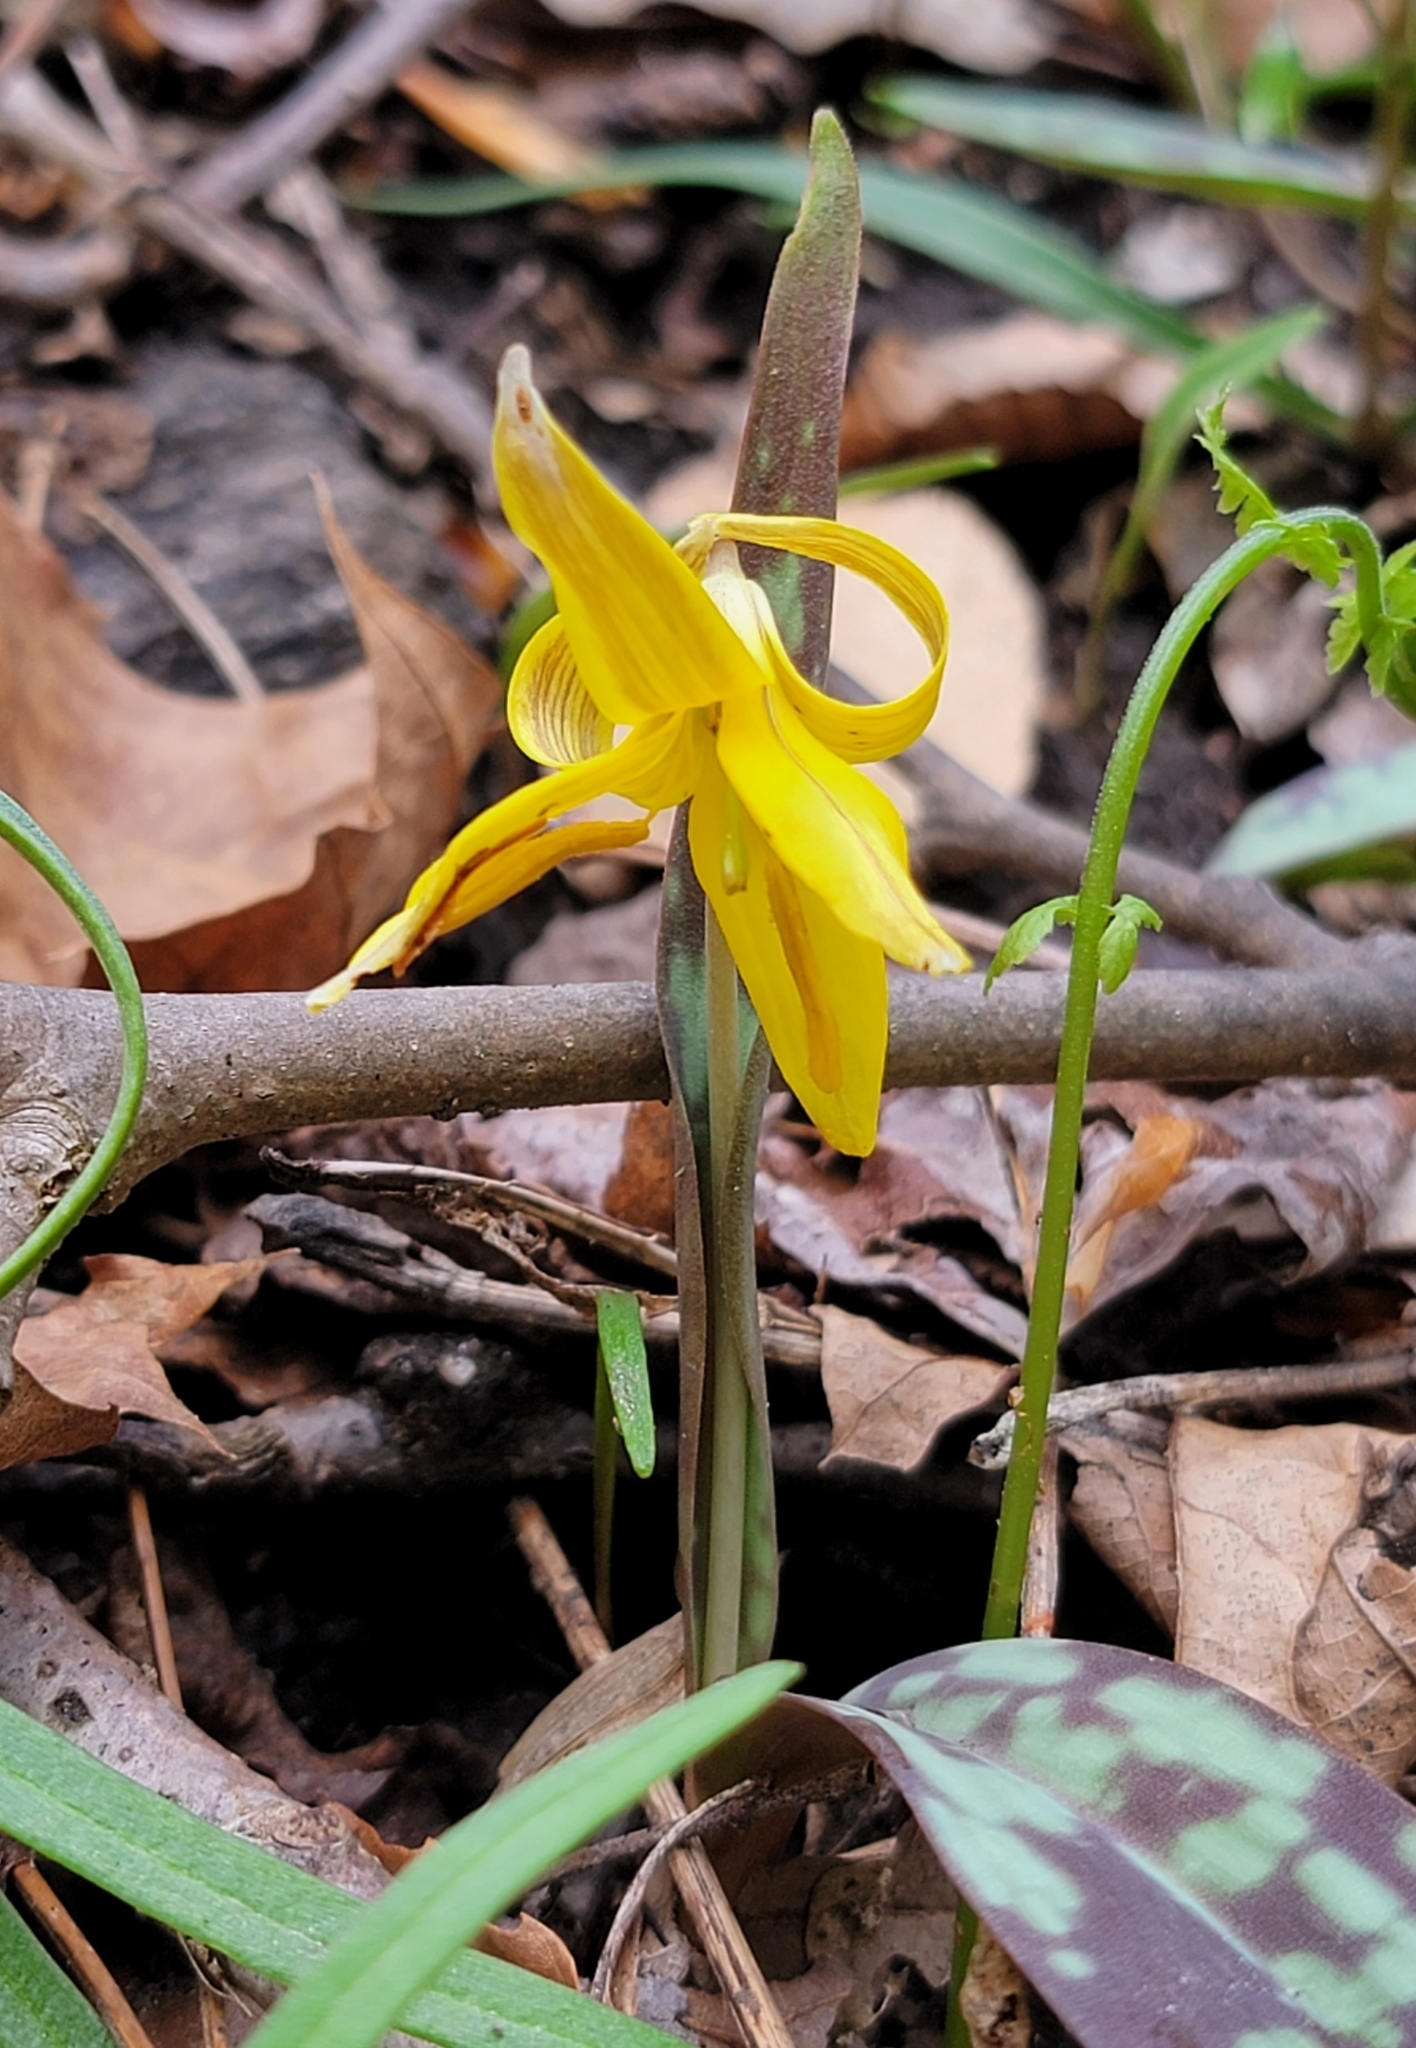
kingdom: Plantae
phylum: Tracheophyta
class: Liliopsida
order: Liliales
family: Liliaceae
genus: Erythronium
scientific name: Erythronium americanum
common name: Yellow adder's-tongue
